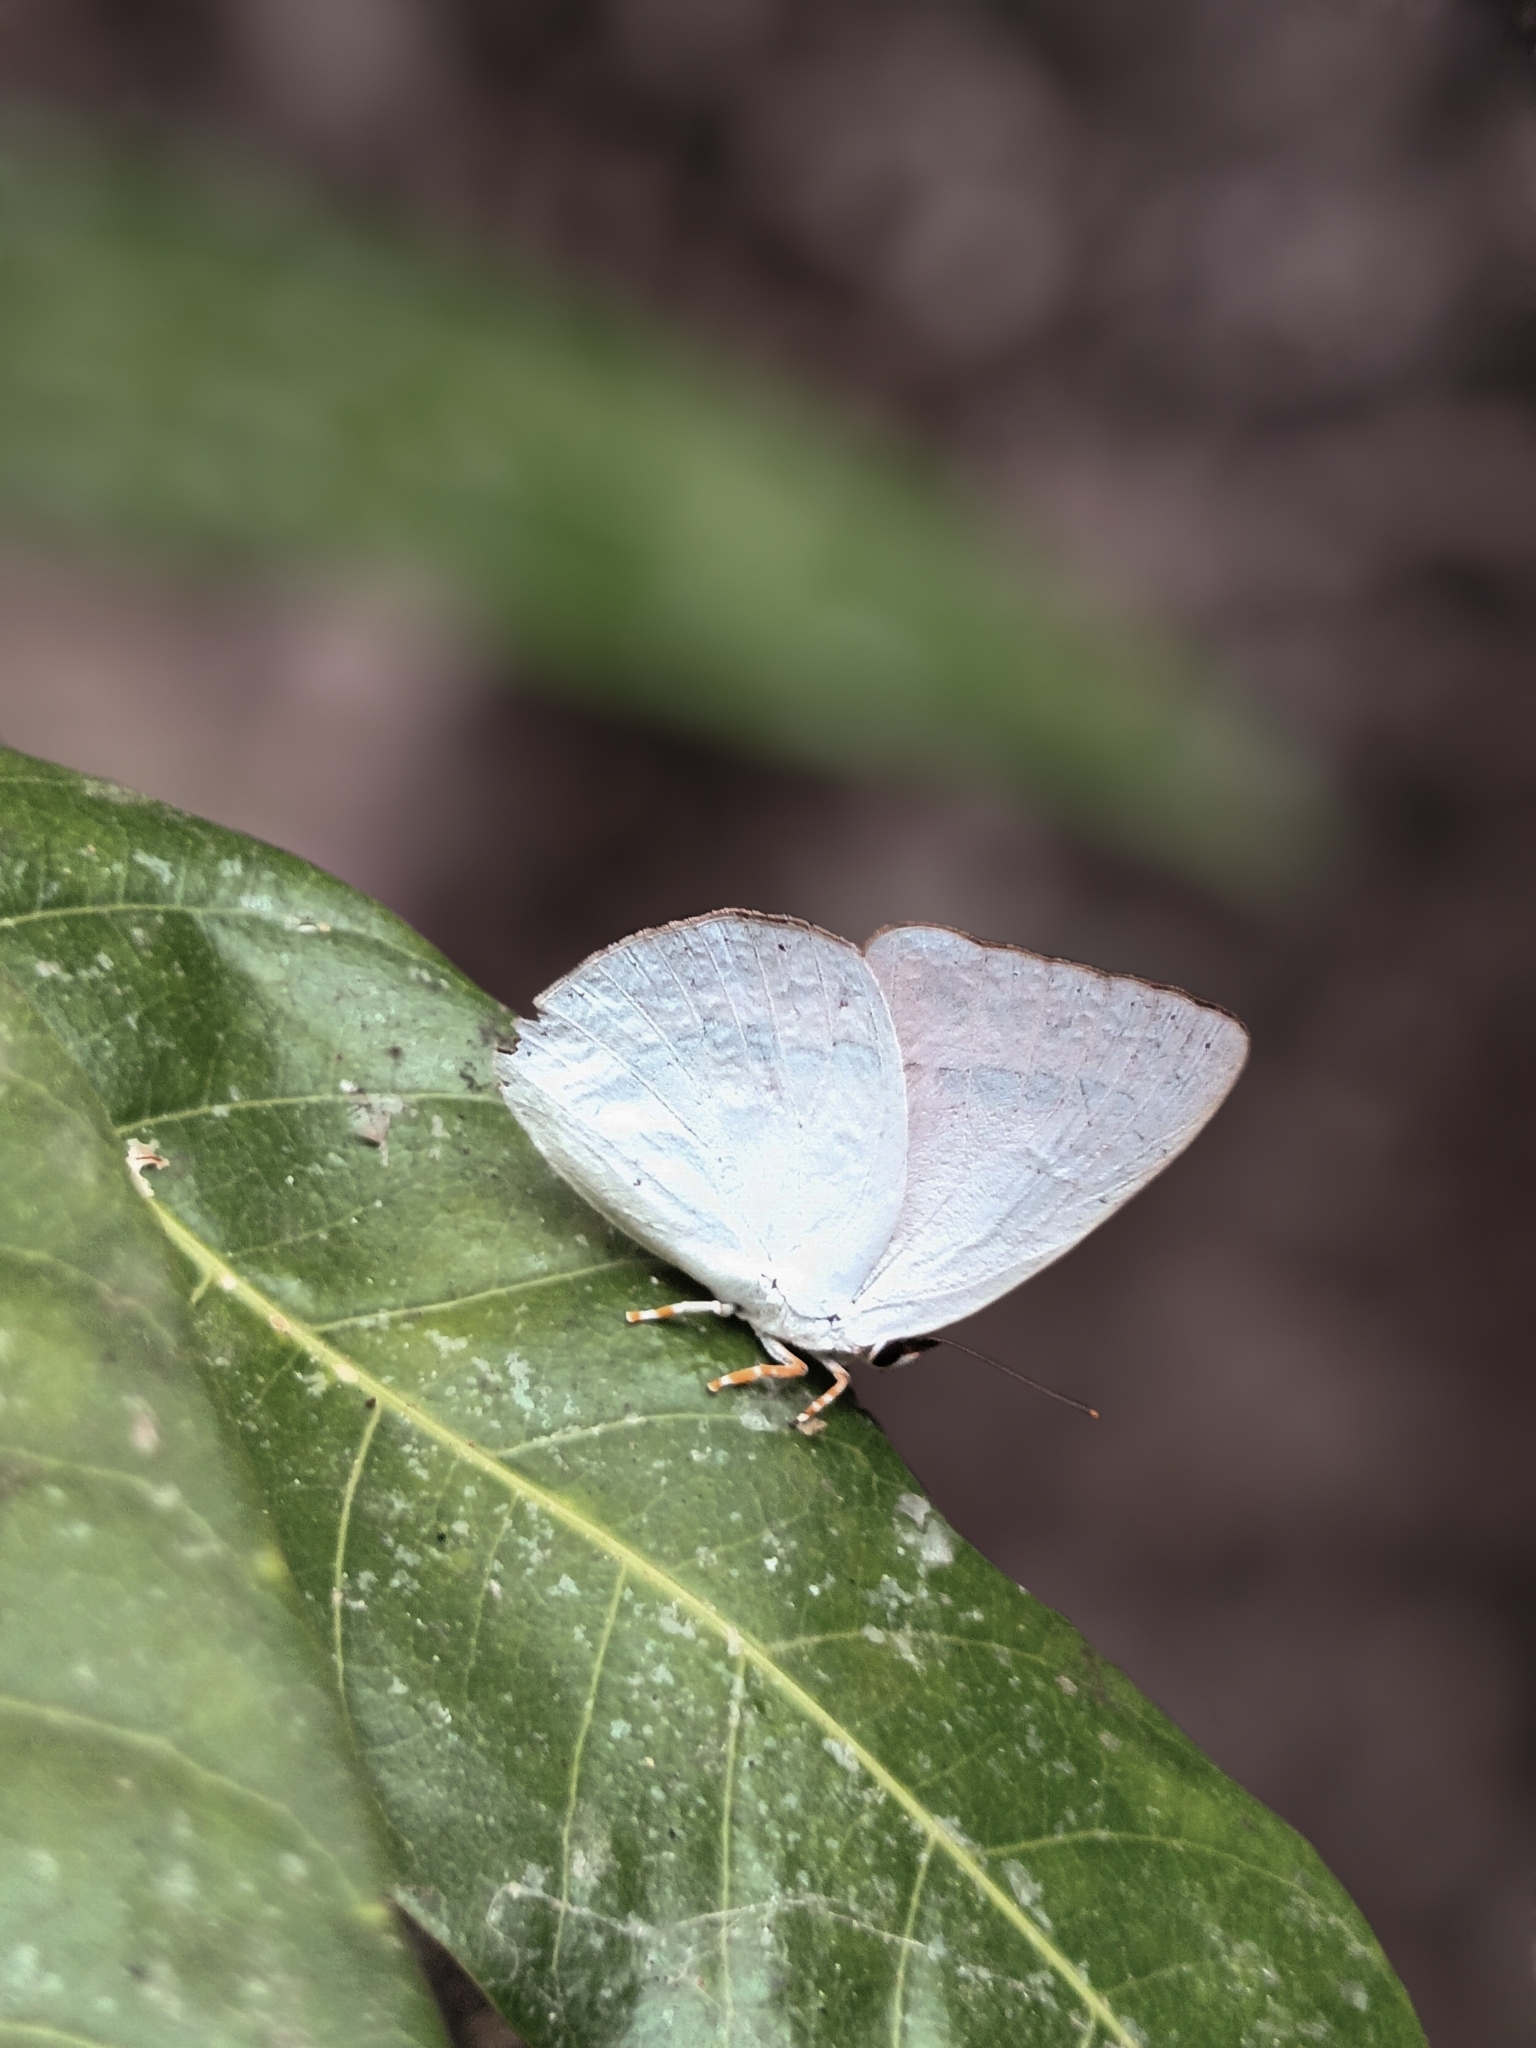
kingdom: Animalia
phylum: Arthropoda
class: Insecta
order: Lepidoptera
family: Lycaenidae
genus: Curetis
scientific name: Curetis thetis
